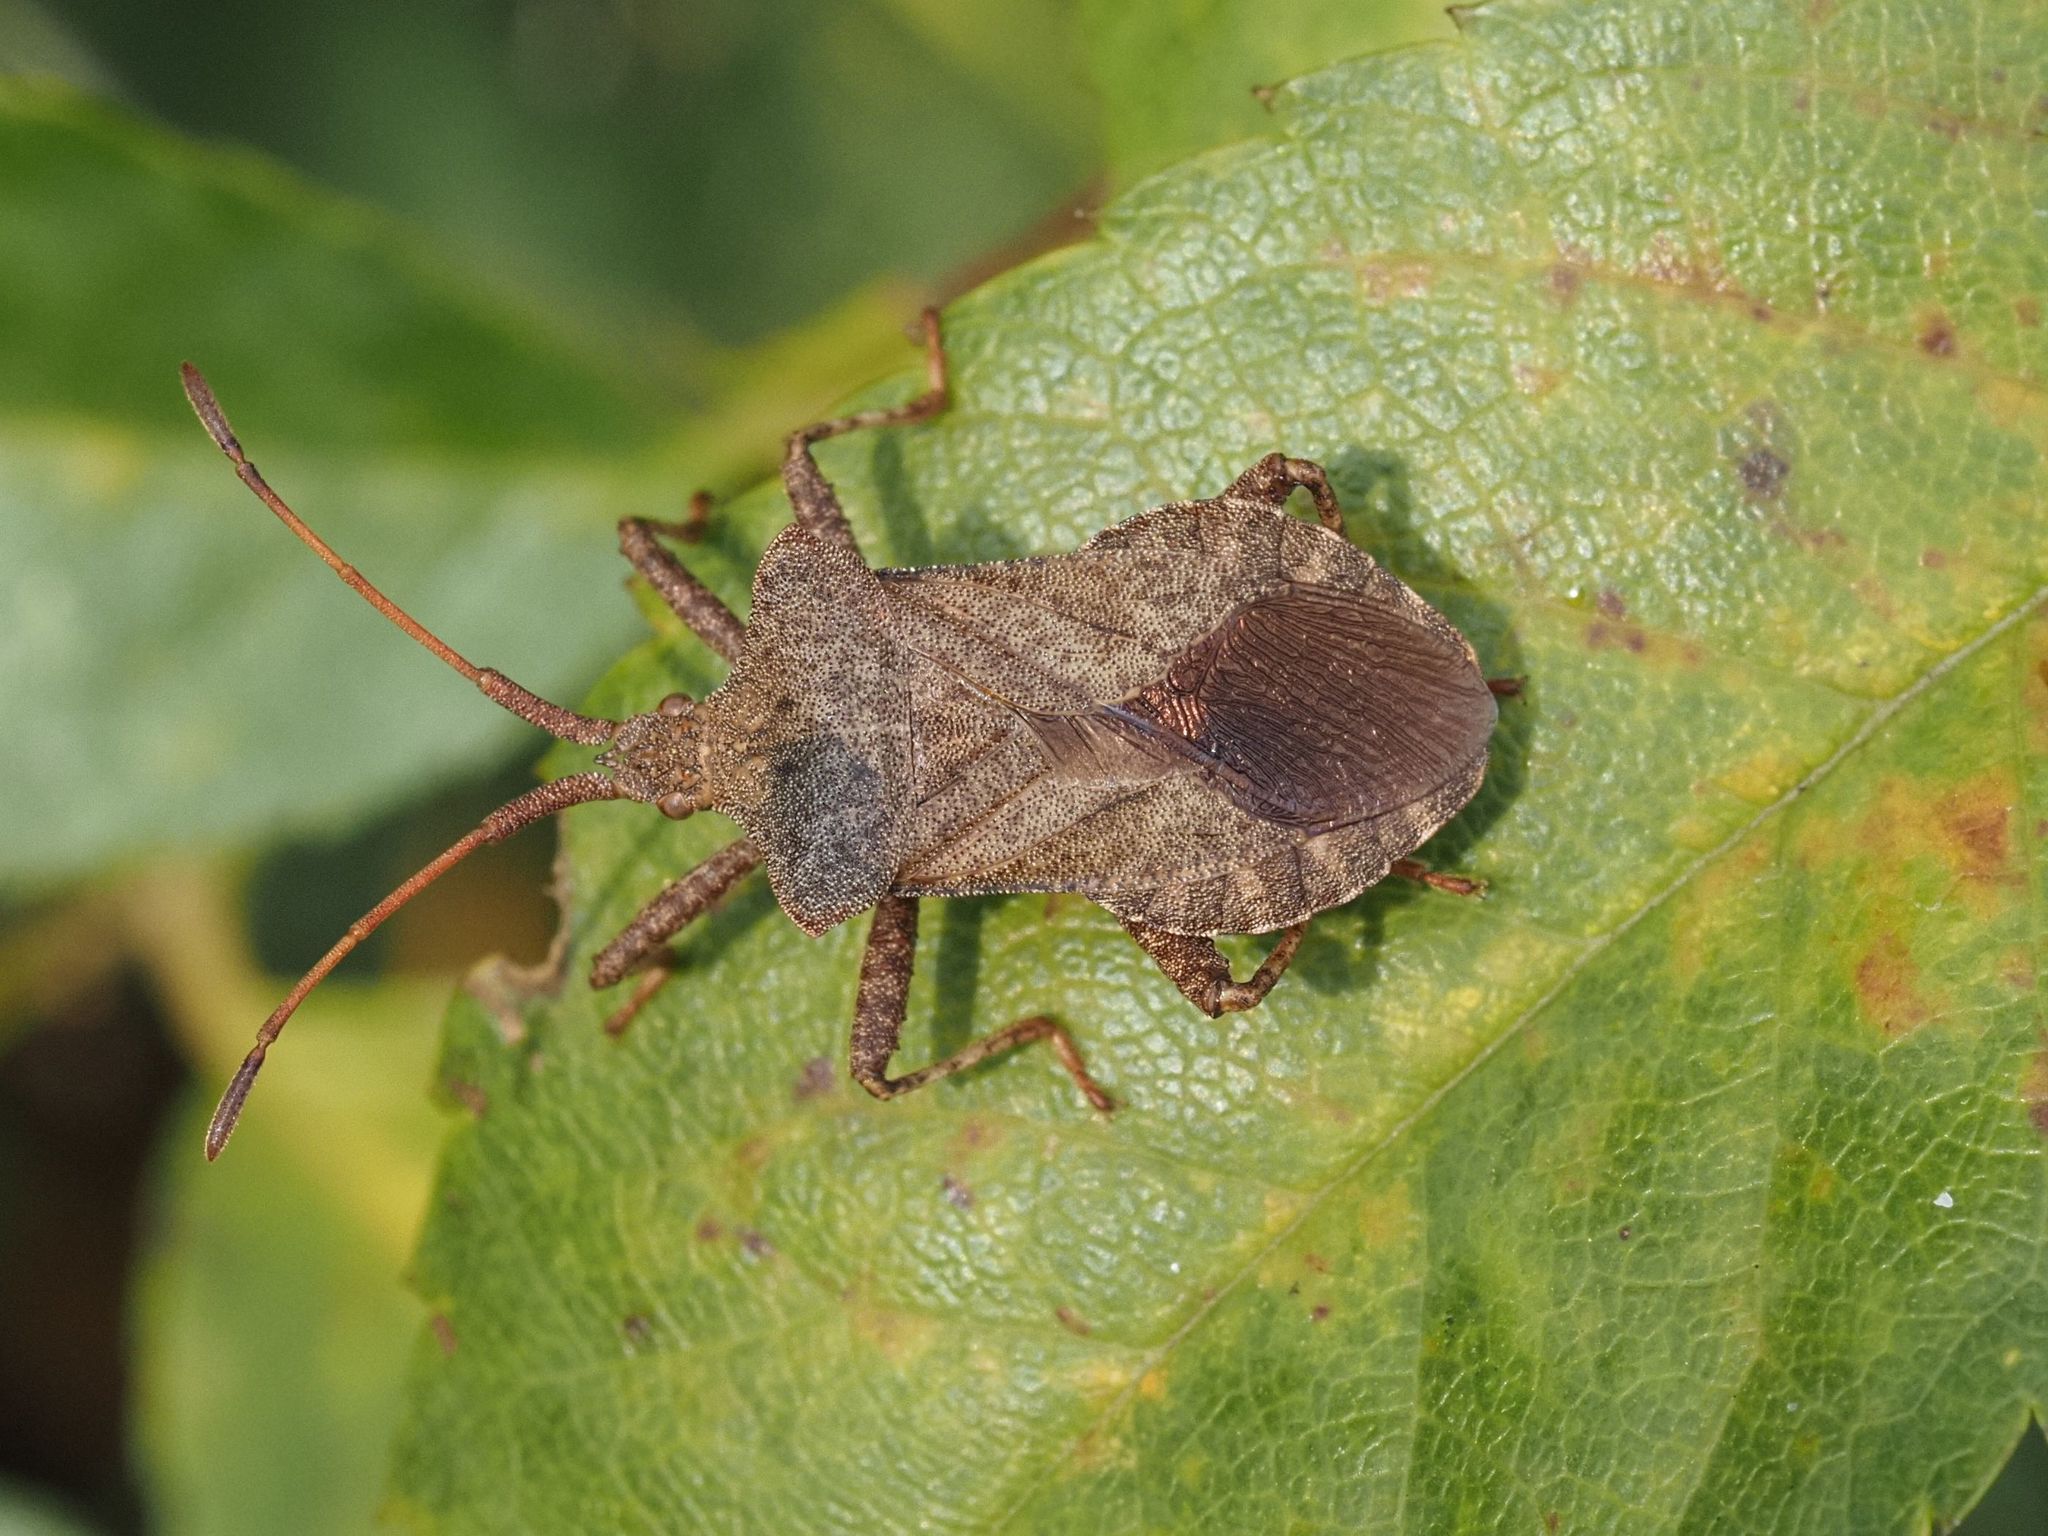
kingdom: Animalia
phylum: Arthropoda
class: Insecta
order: Hemiptera
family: Coreidae
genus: Coreus
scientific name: Coreus marginatus
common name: Dock bug
